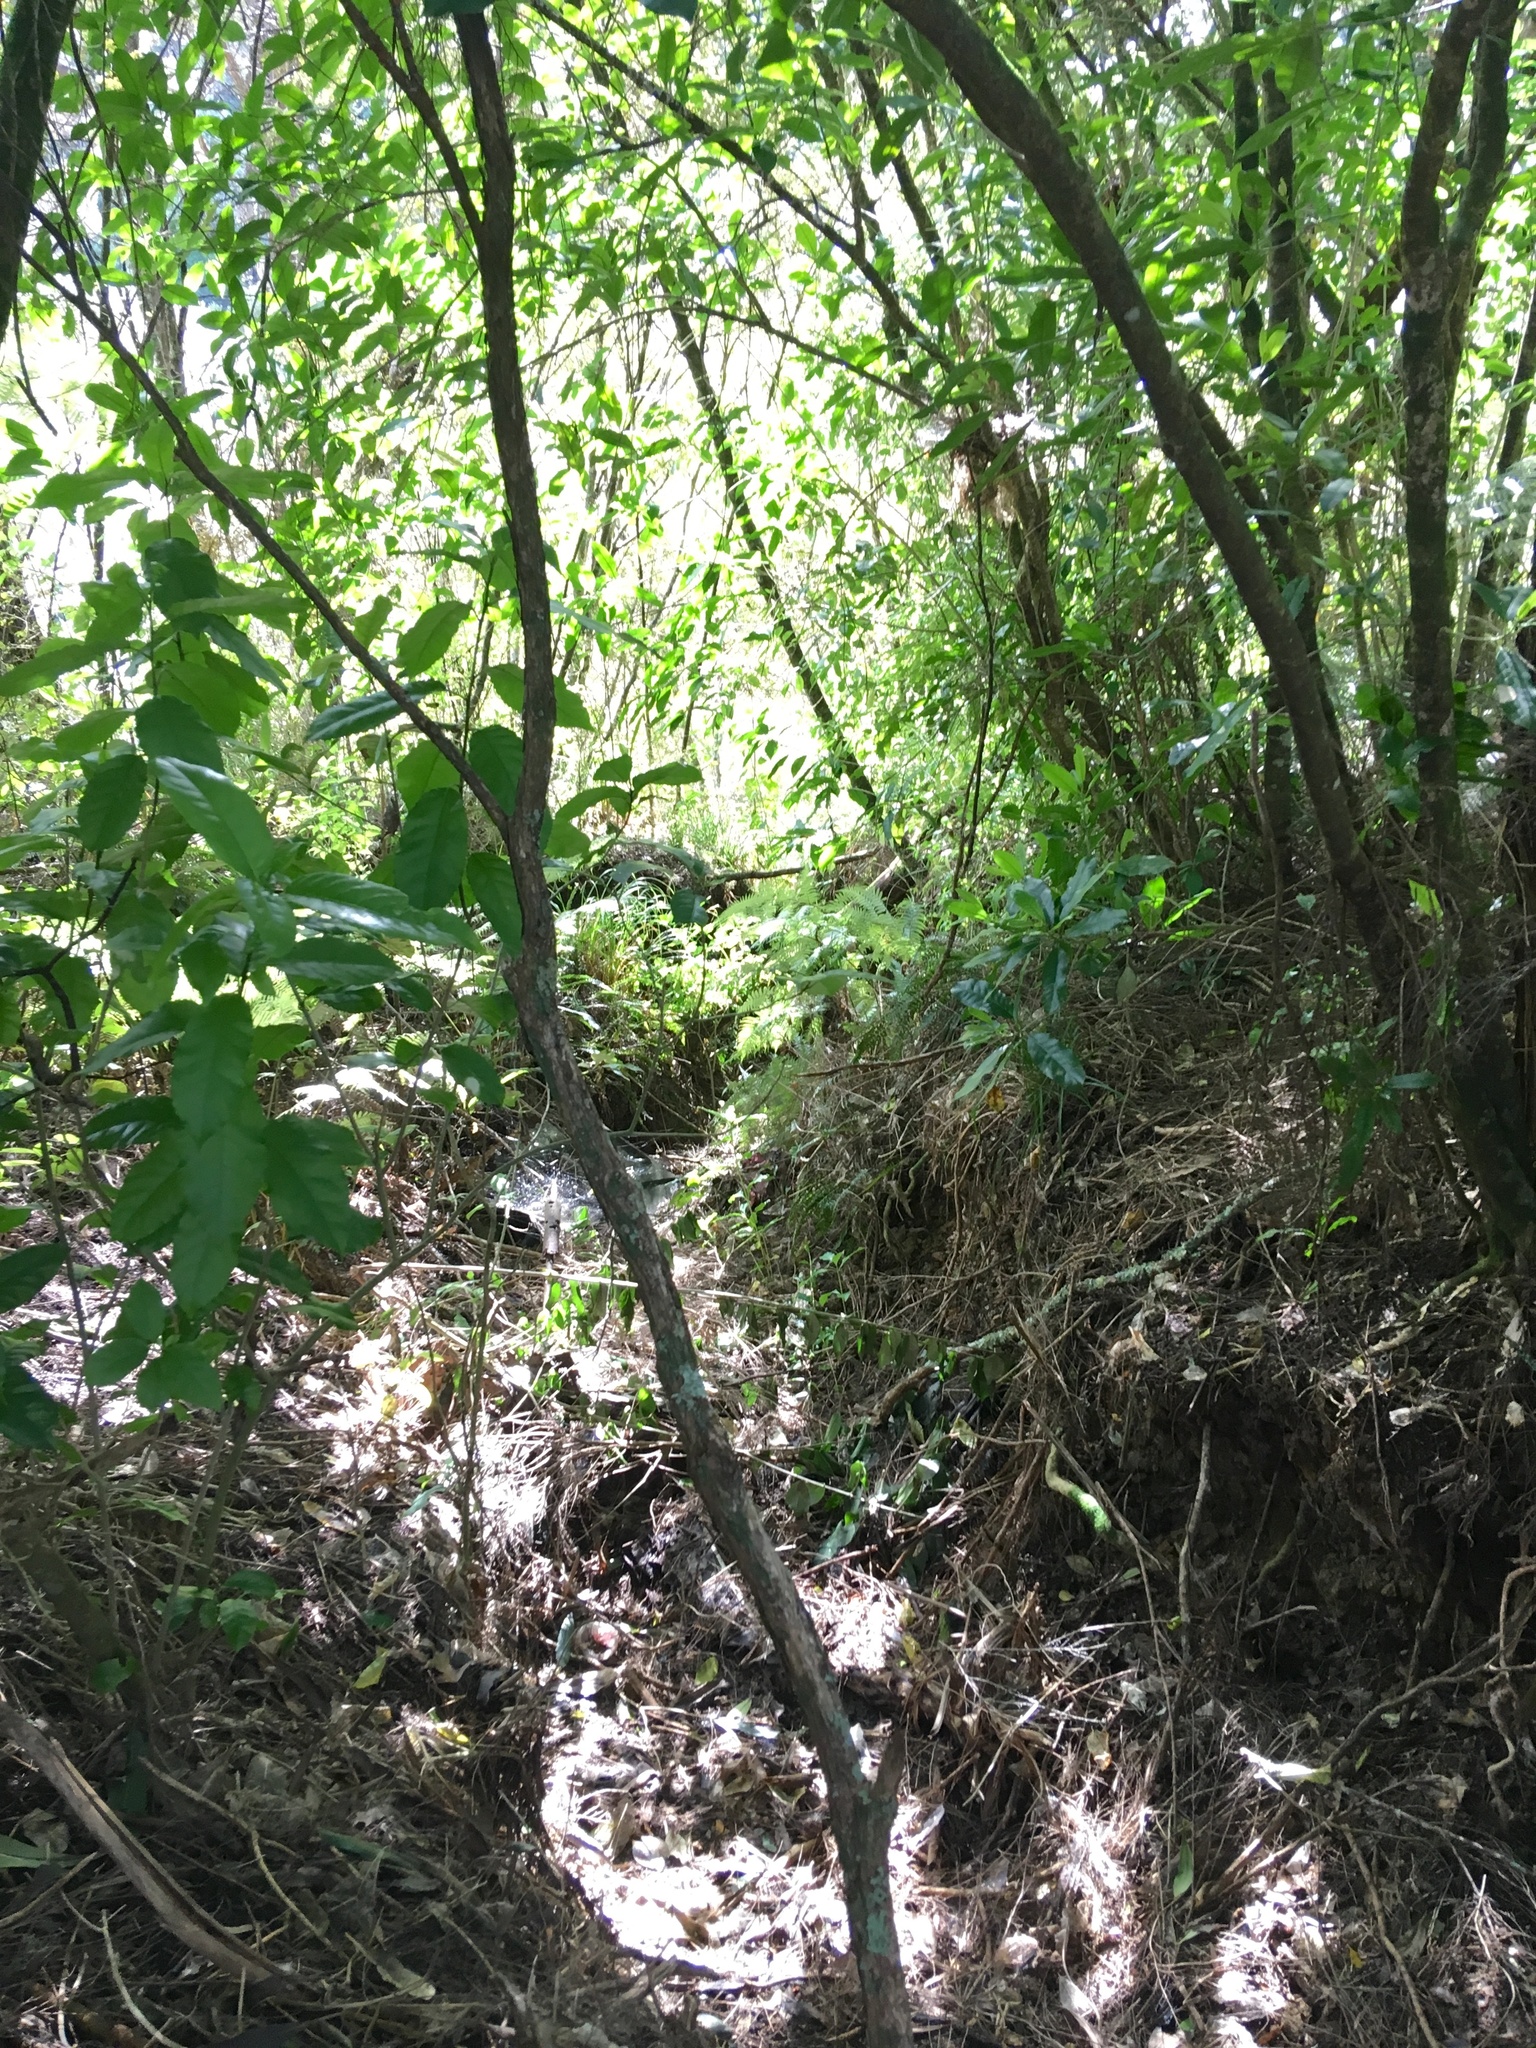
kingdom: Plantae
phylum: Tracheophyta
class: Magnoliopsida
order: Malpighiales
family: Violaceae
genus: Melicytus
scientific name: Melicytus ramiflorus
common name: Mahoe
